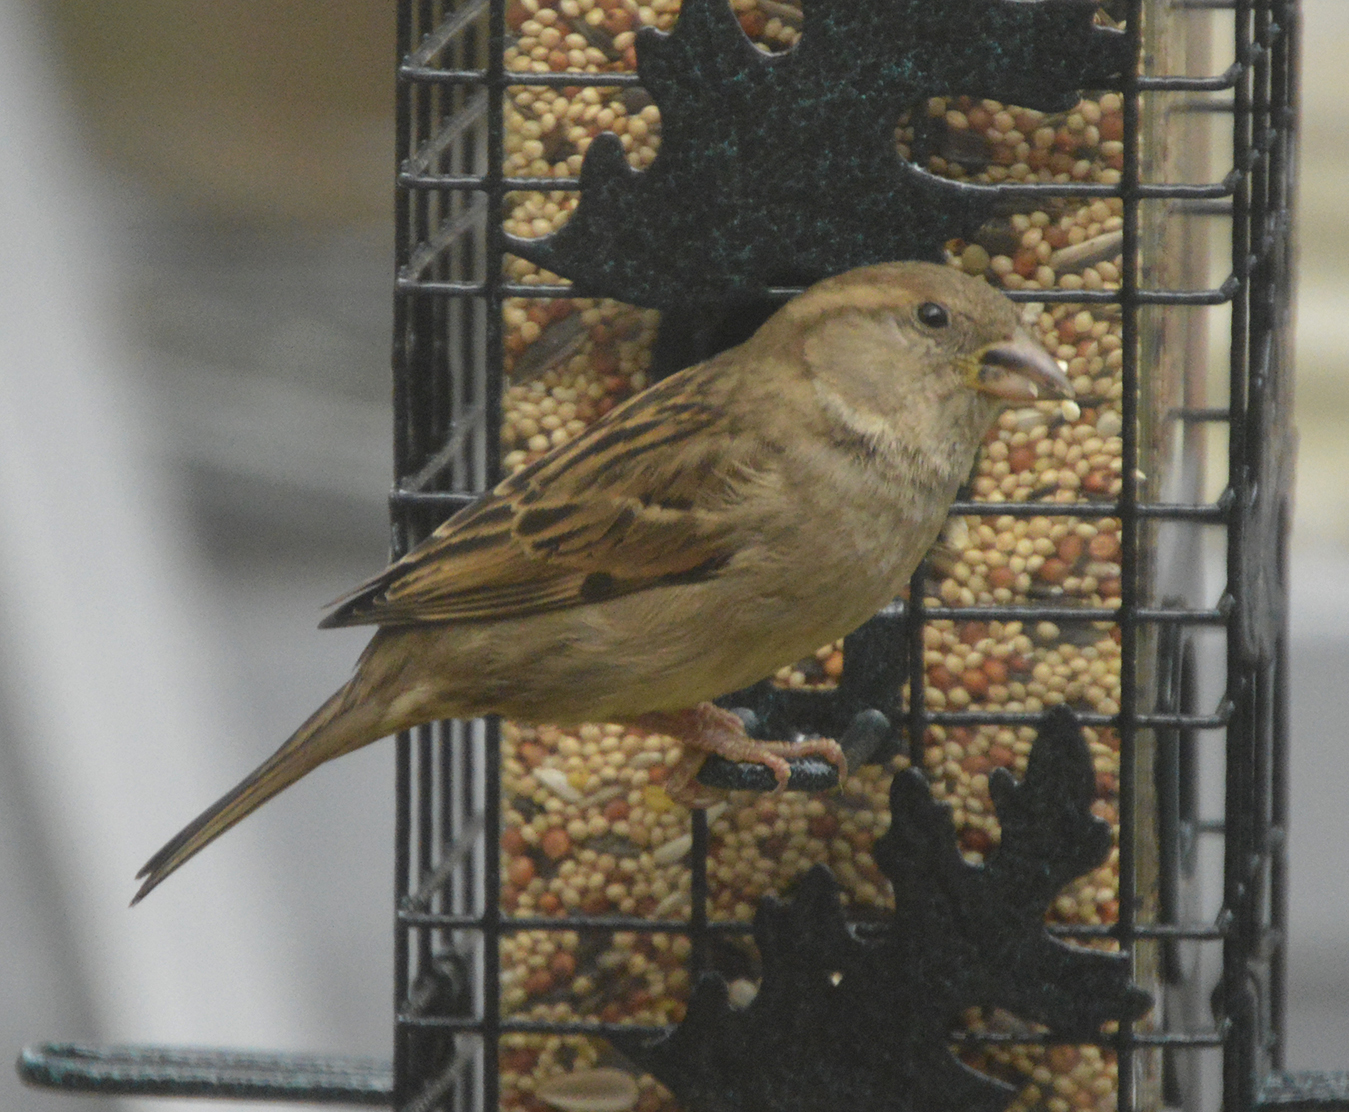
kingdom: Animalia
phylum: Chordata
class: Aves
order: Passeriformes
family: Passeridae
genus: Passer
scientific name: Passer domesticus
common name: House sparrow
